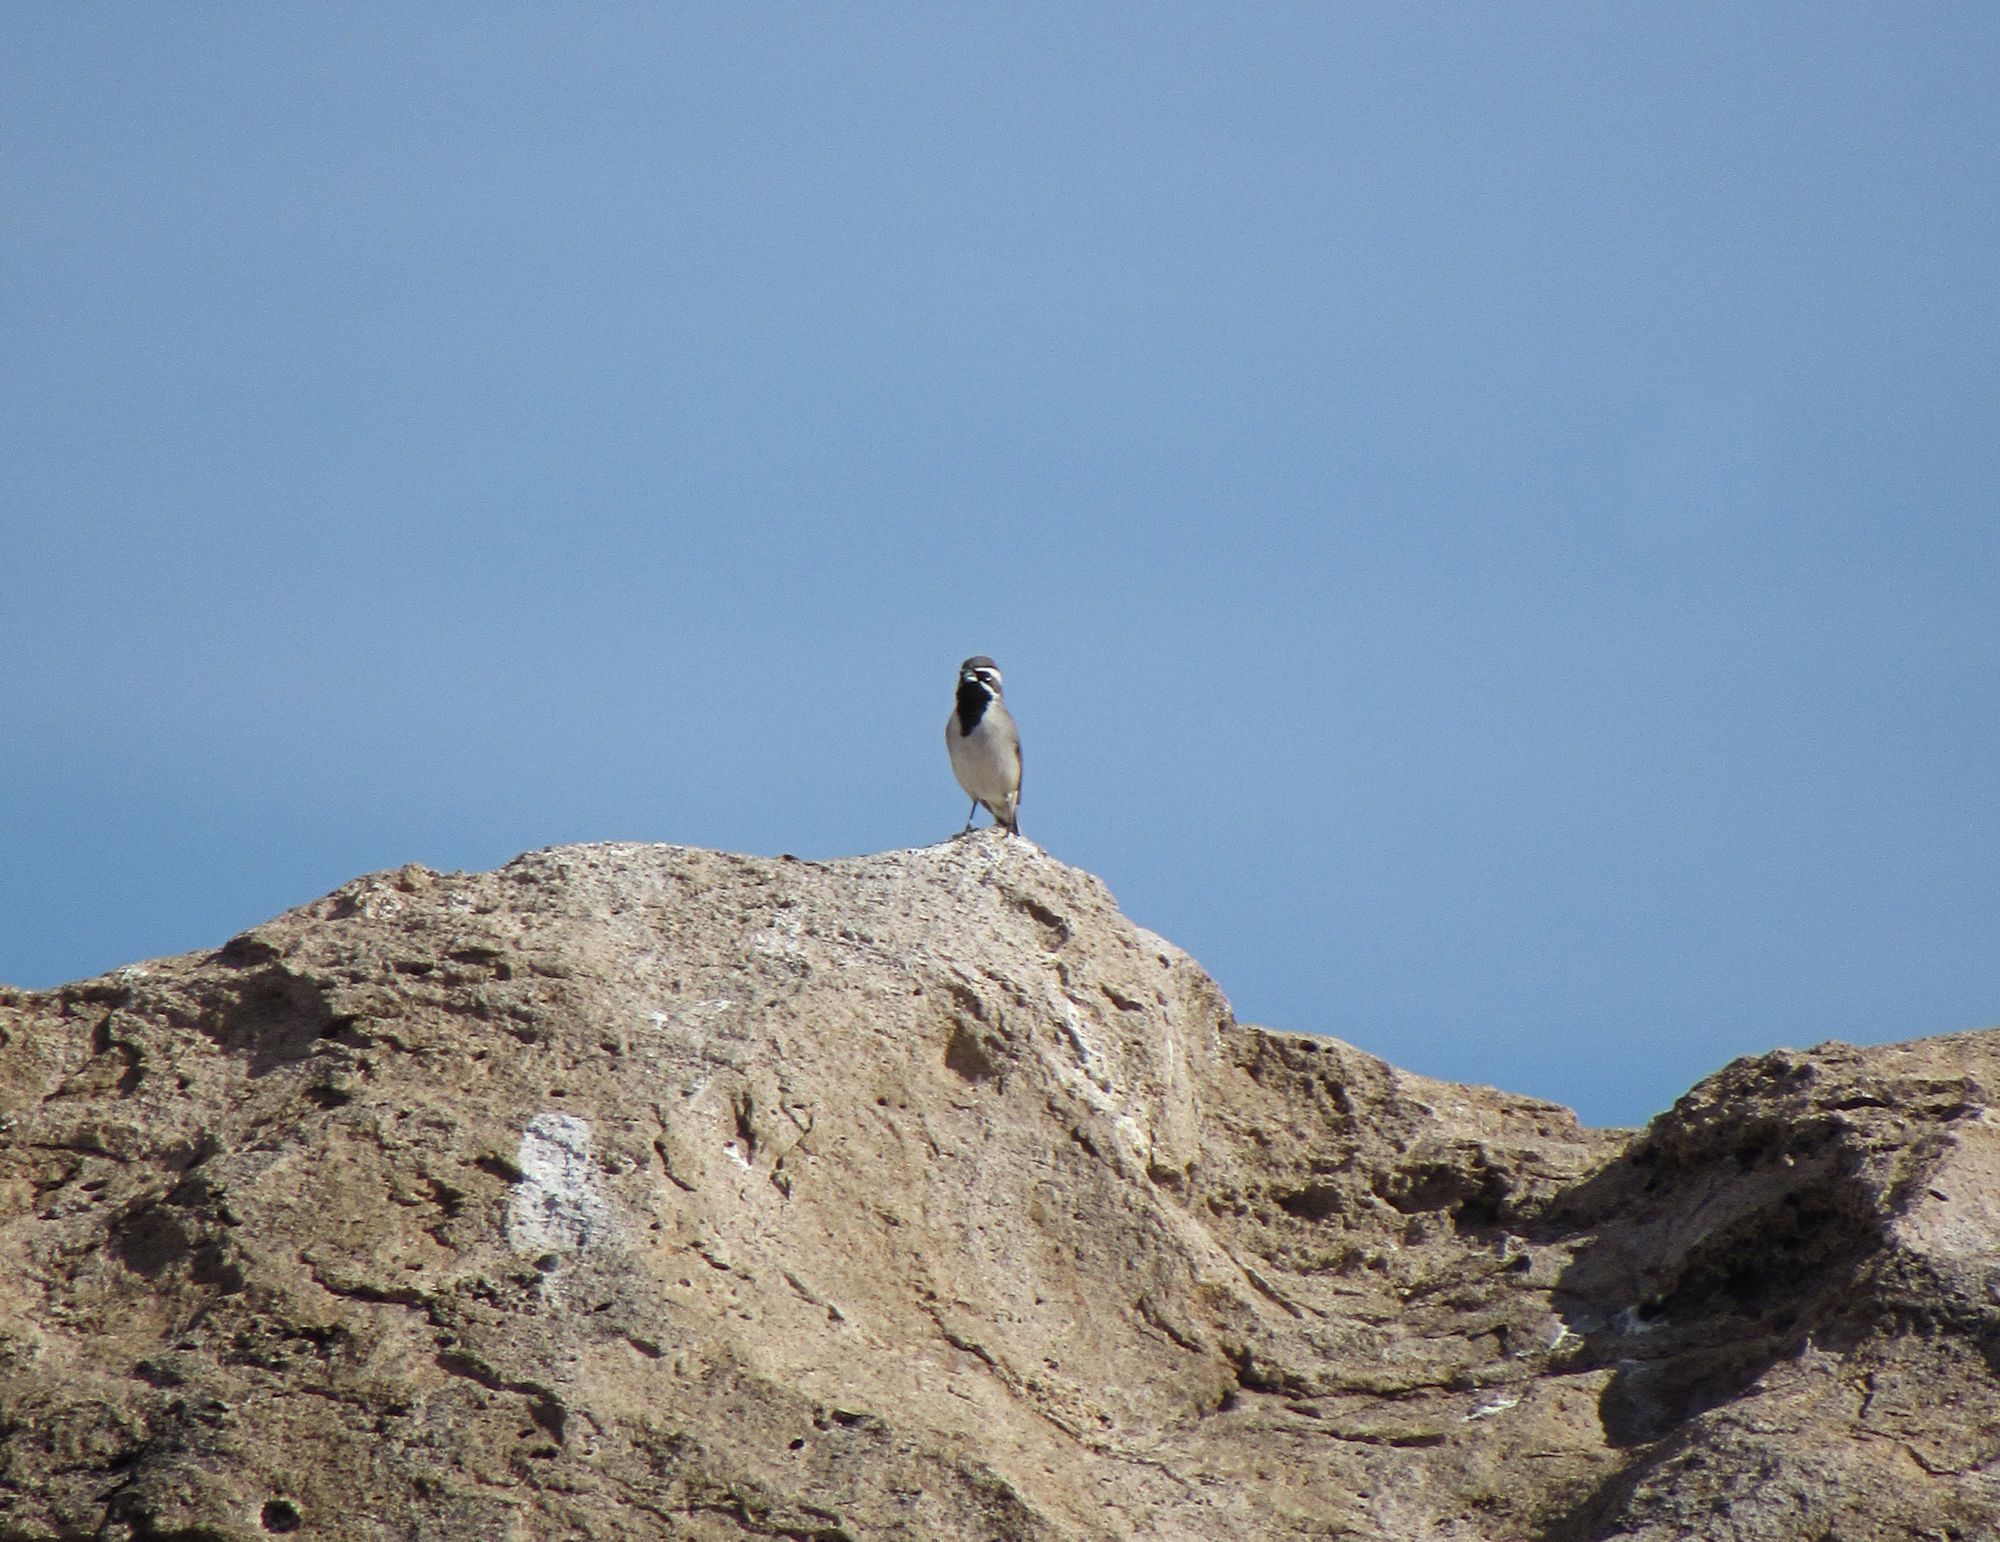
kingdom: Animalia
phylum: Chordata
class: Aves
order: Passeriformes
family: Passerellidae
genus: Amphispiza
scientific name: Amphispiza bilineata
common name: Black-throated sparrow
